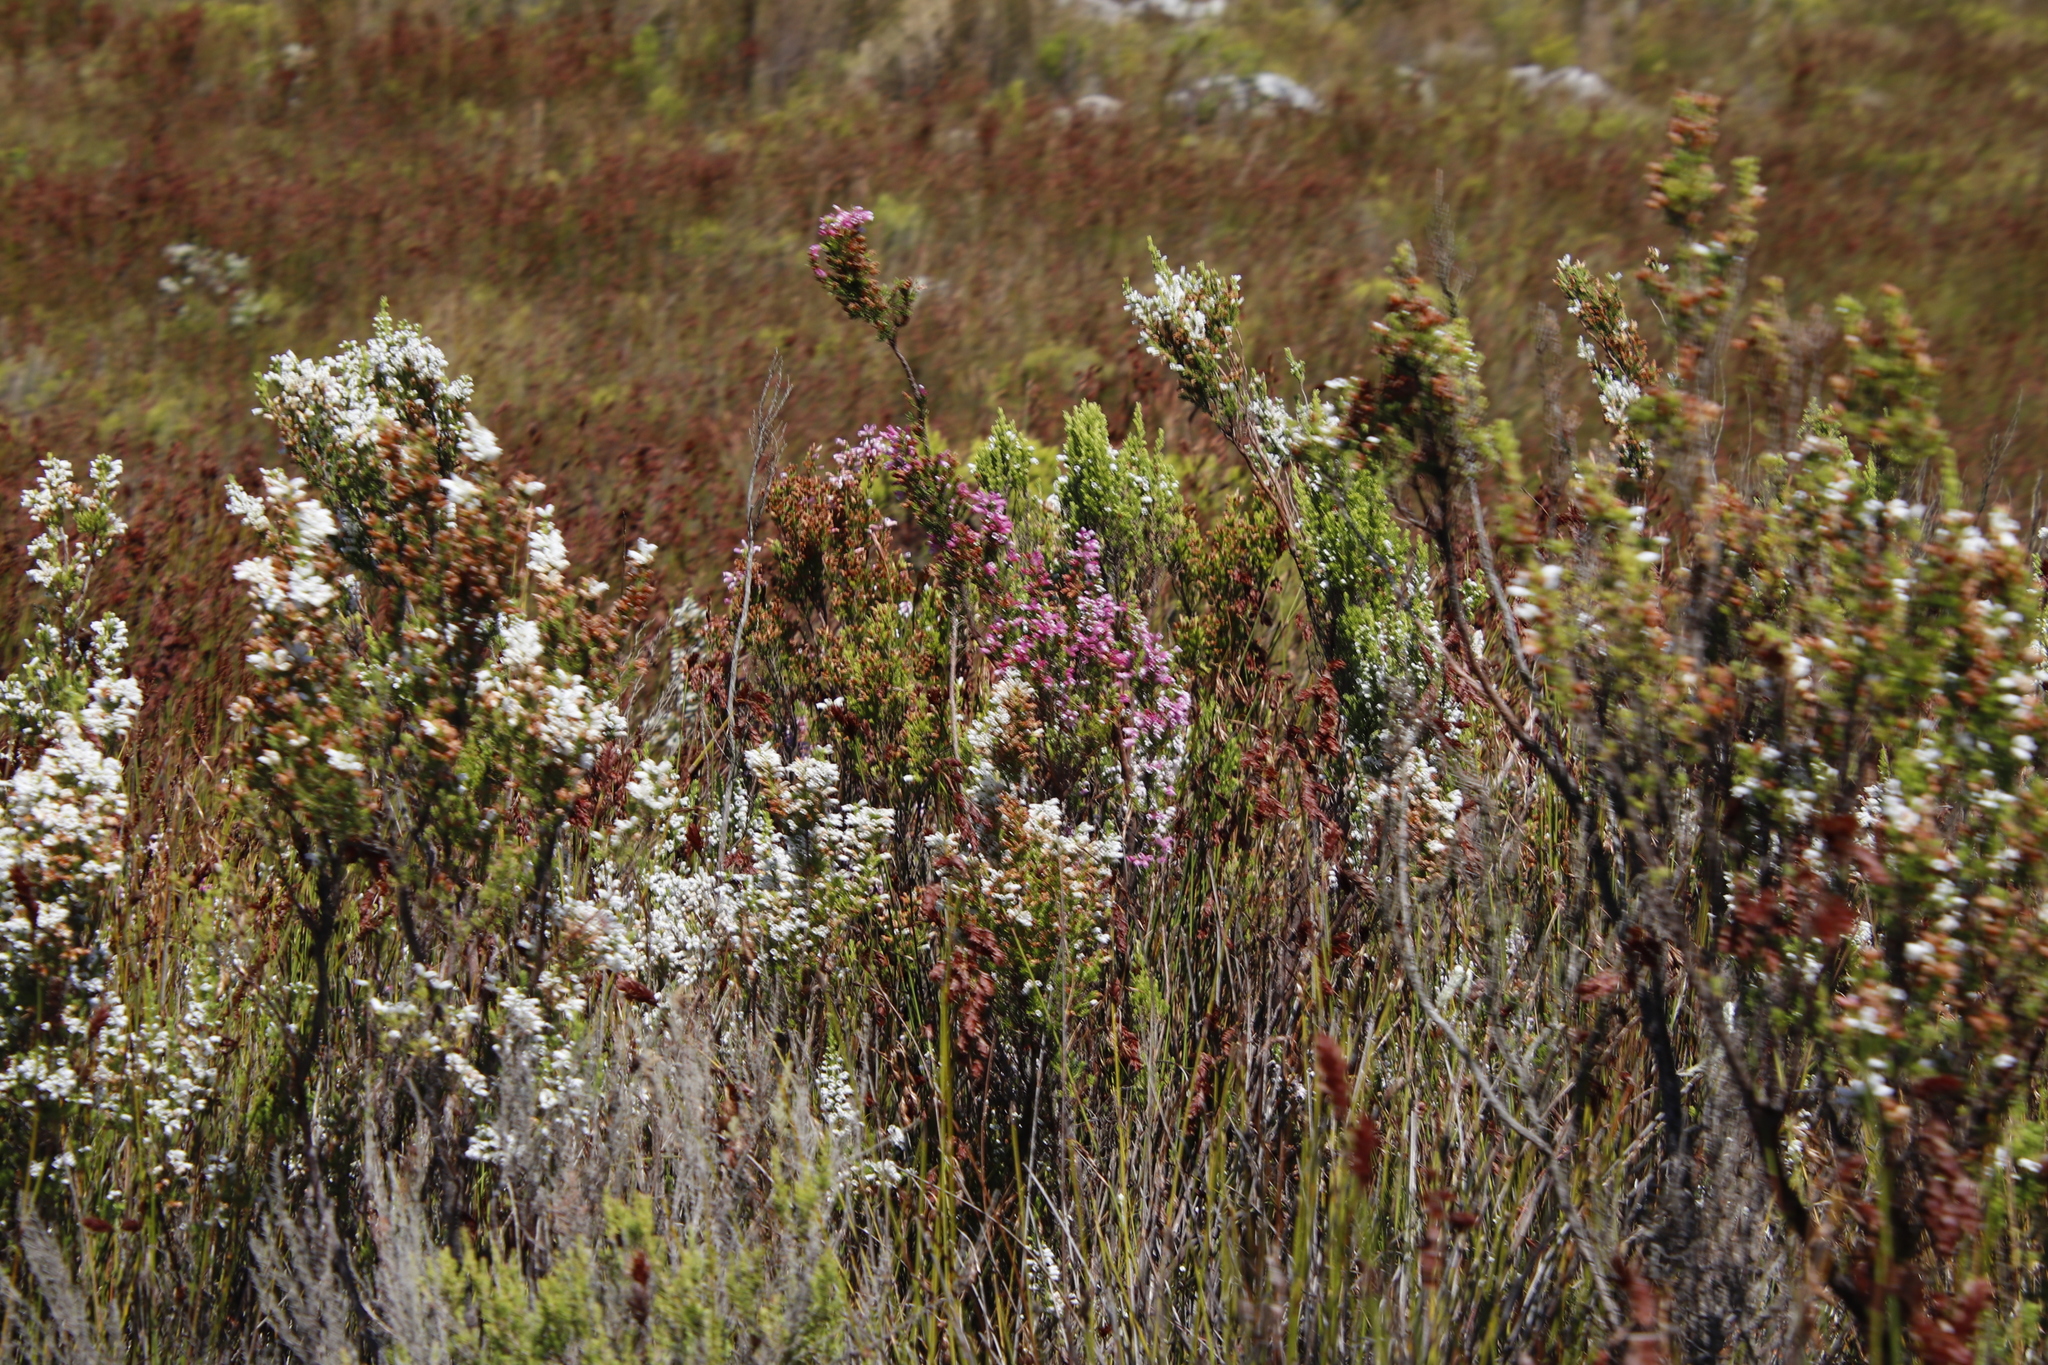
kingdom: Plantae
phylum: Tracheophyta
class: Magnoliopsida
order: Ericales
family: Ericaceae
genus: Erica
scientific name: Erica sitiens
